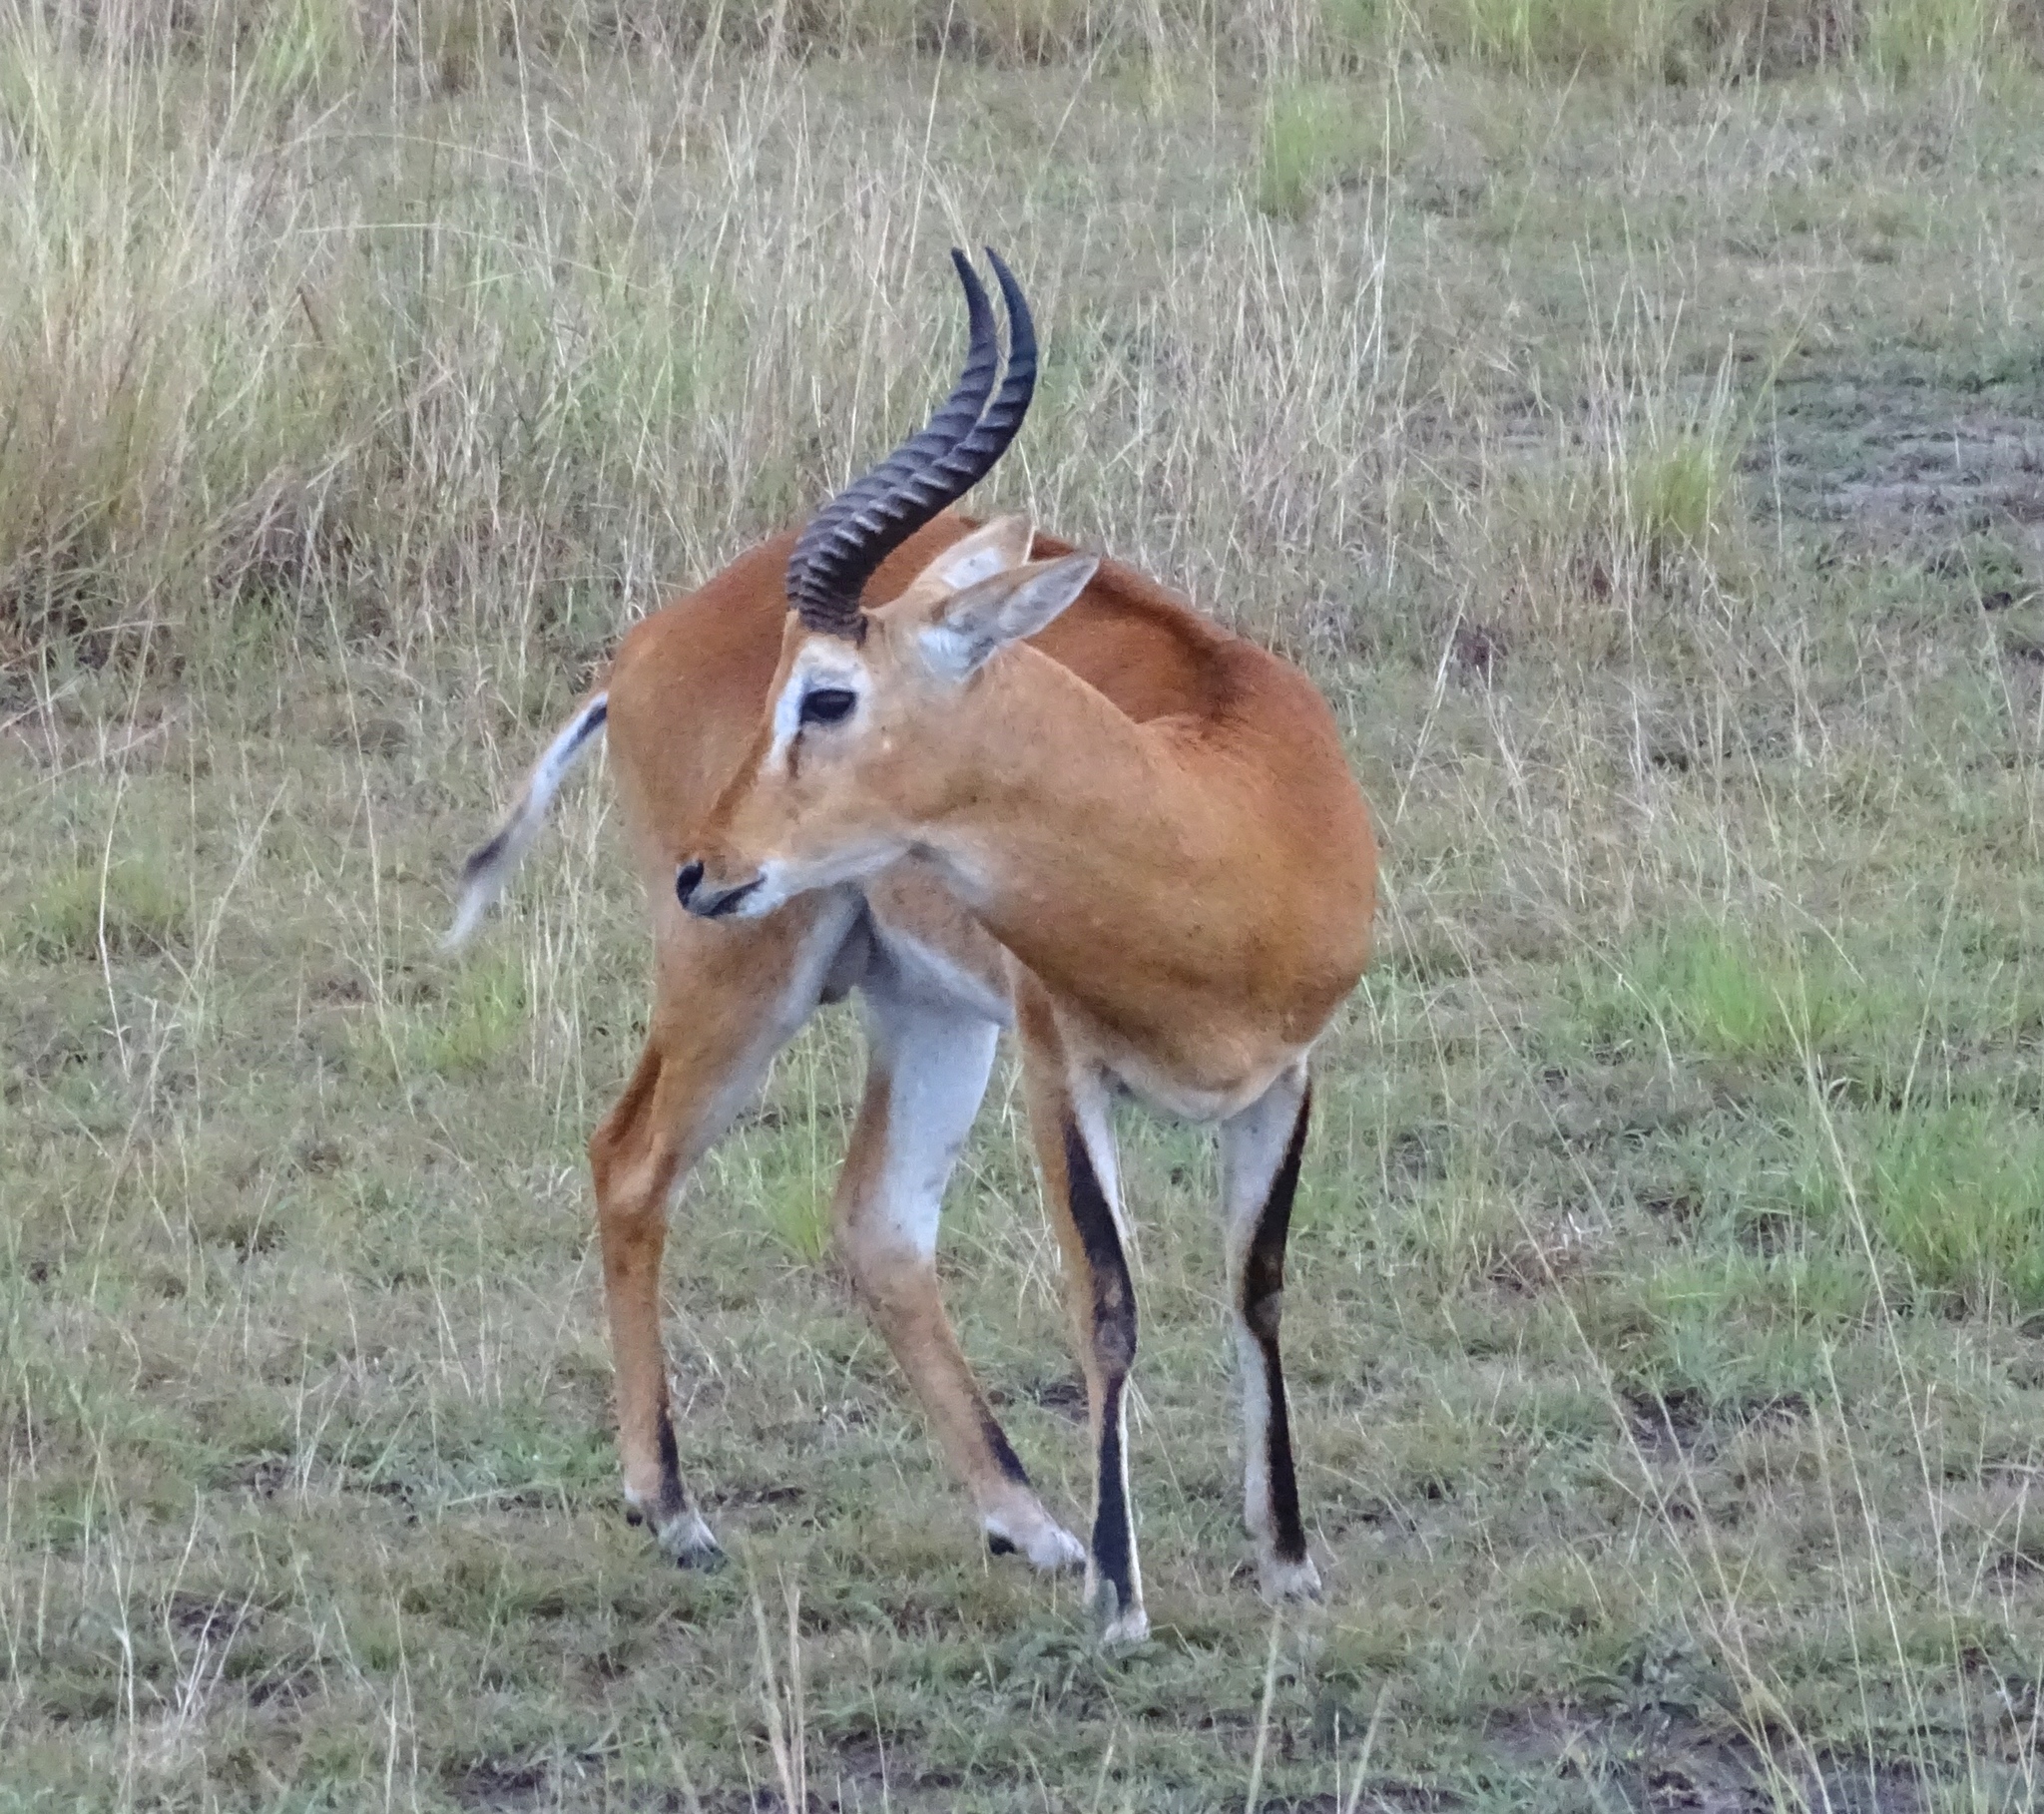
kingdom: Animalia
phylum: Chordata
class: Mammalia
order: Artiodactyla
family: Bovidae
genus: Kobus
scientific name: Kobus kob
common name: Kob
